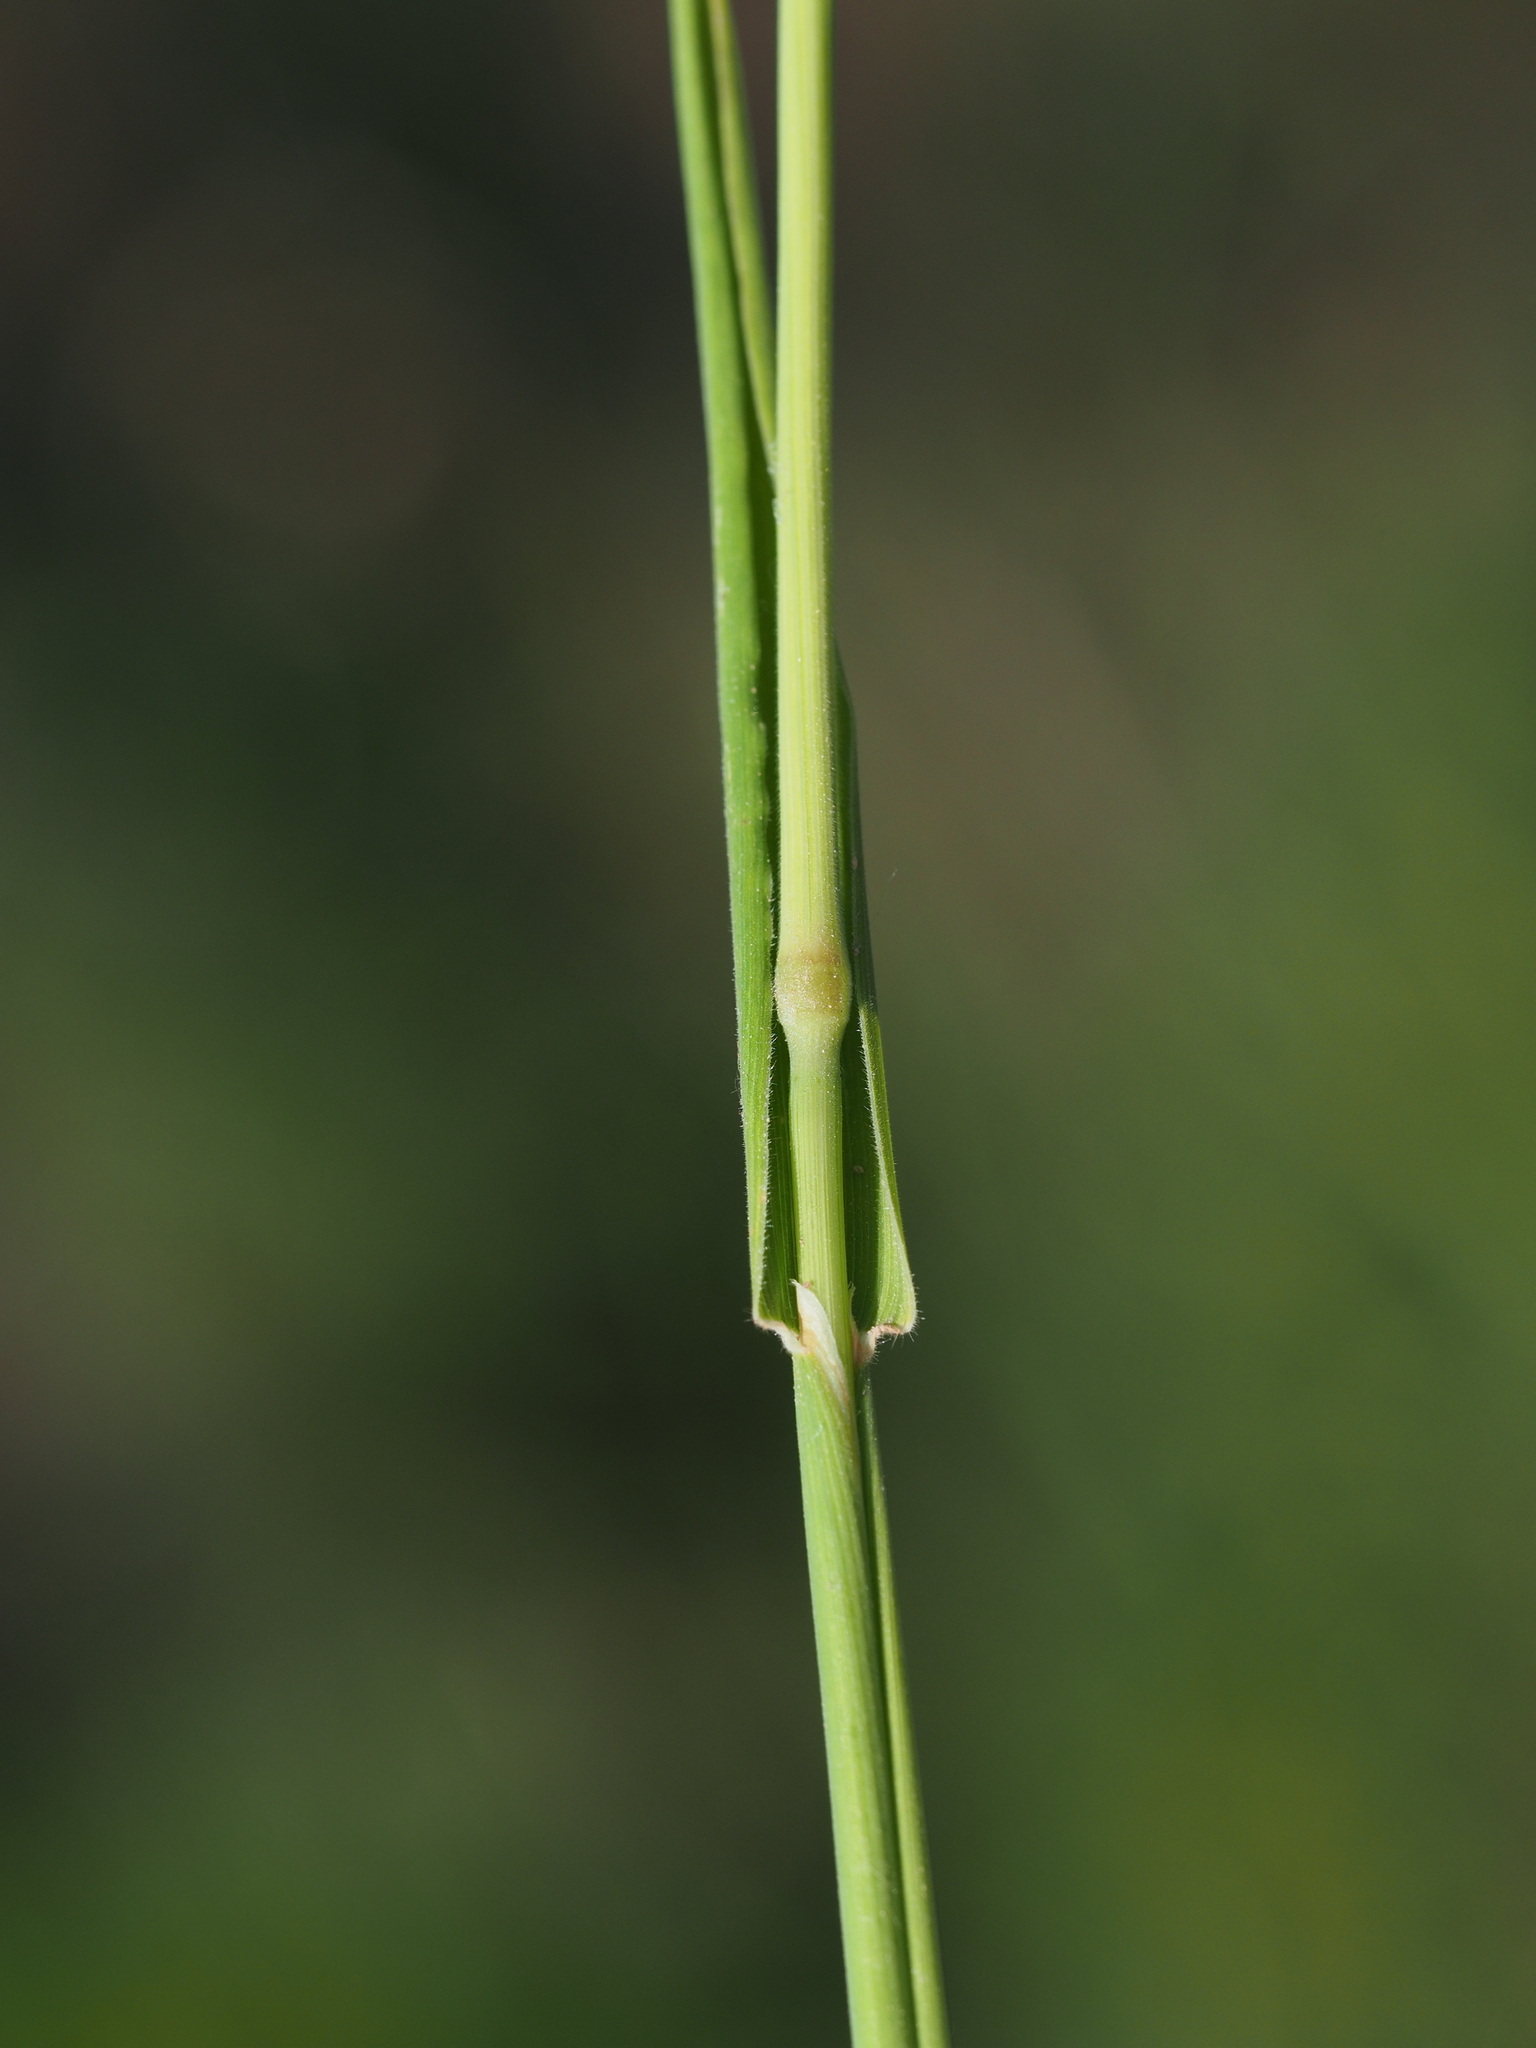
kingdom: Plantae
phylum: Tracheophyta
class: Liliopsida
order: Poales
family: Poaceae
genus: Holcus
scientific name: Holcus lanatus
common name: Yorkshire-fog
